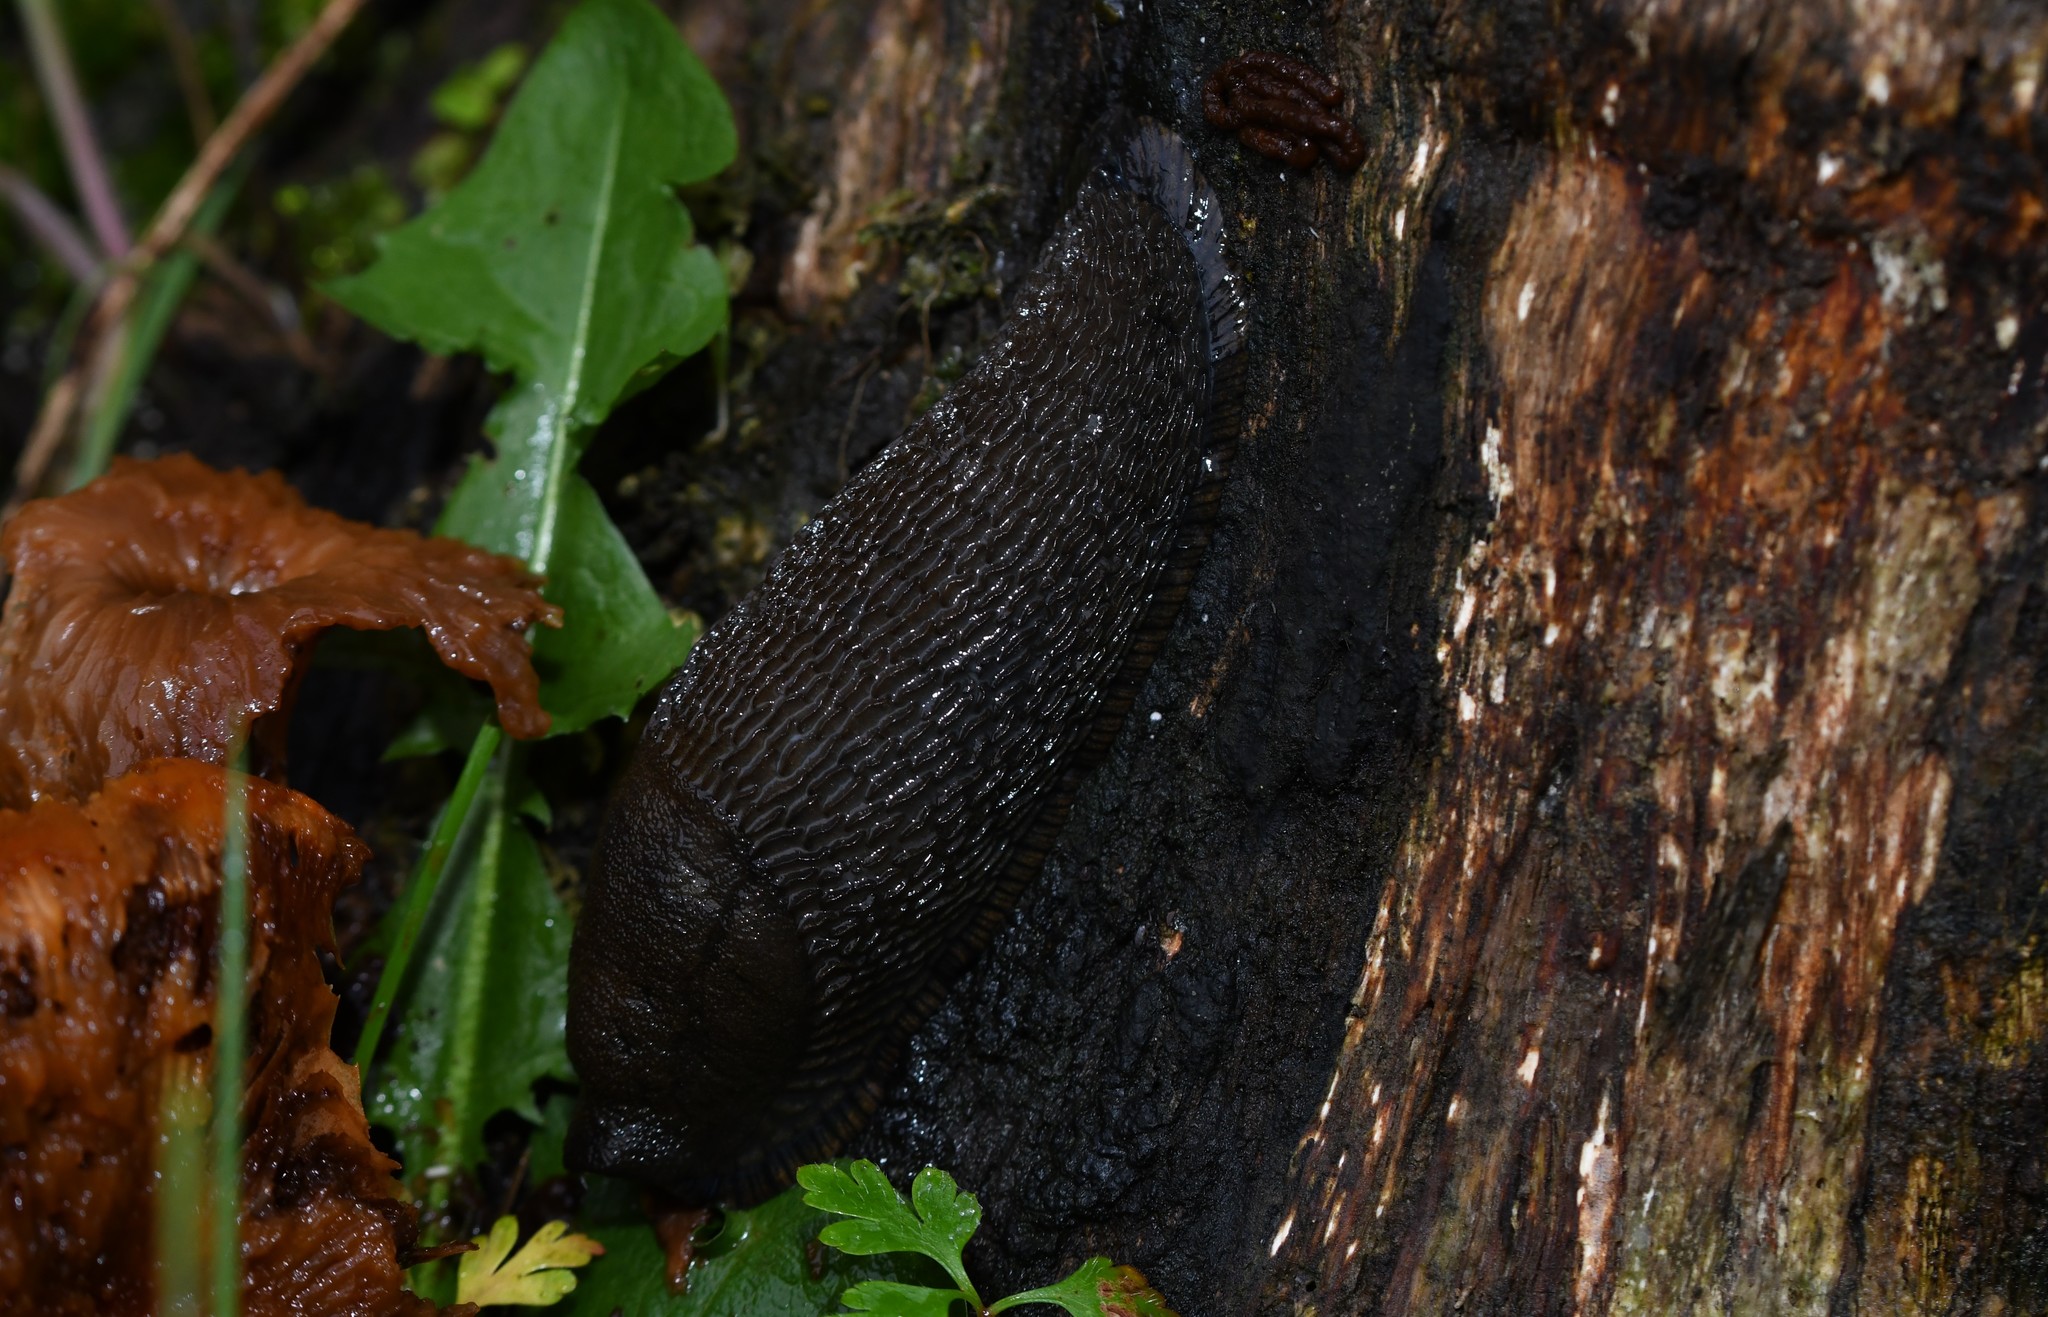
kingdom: Animalia
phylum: Mollusca
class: Gastropoda
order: Stylommatophora
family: Arionidae
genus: Arion
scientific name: Arion ater
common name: Black arion
